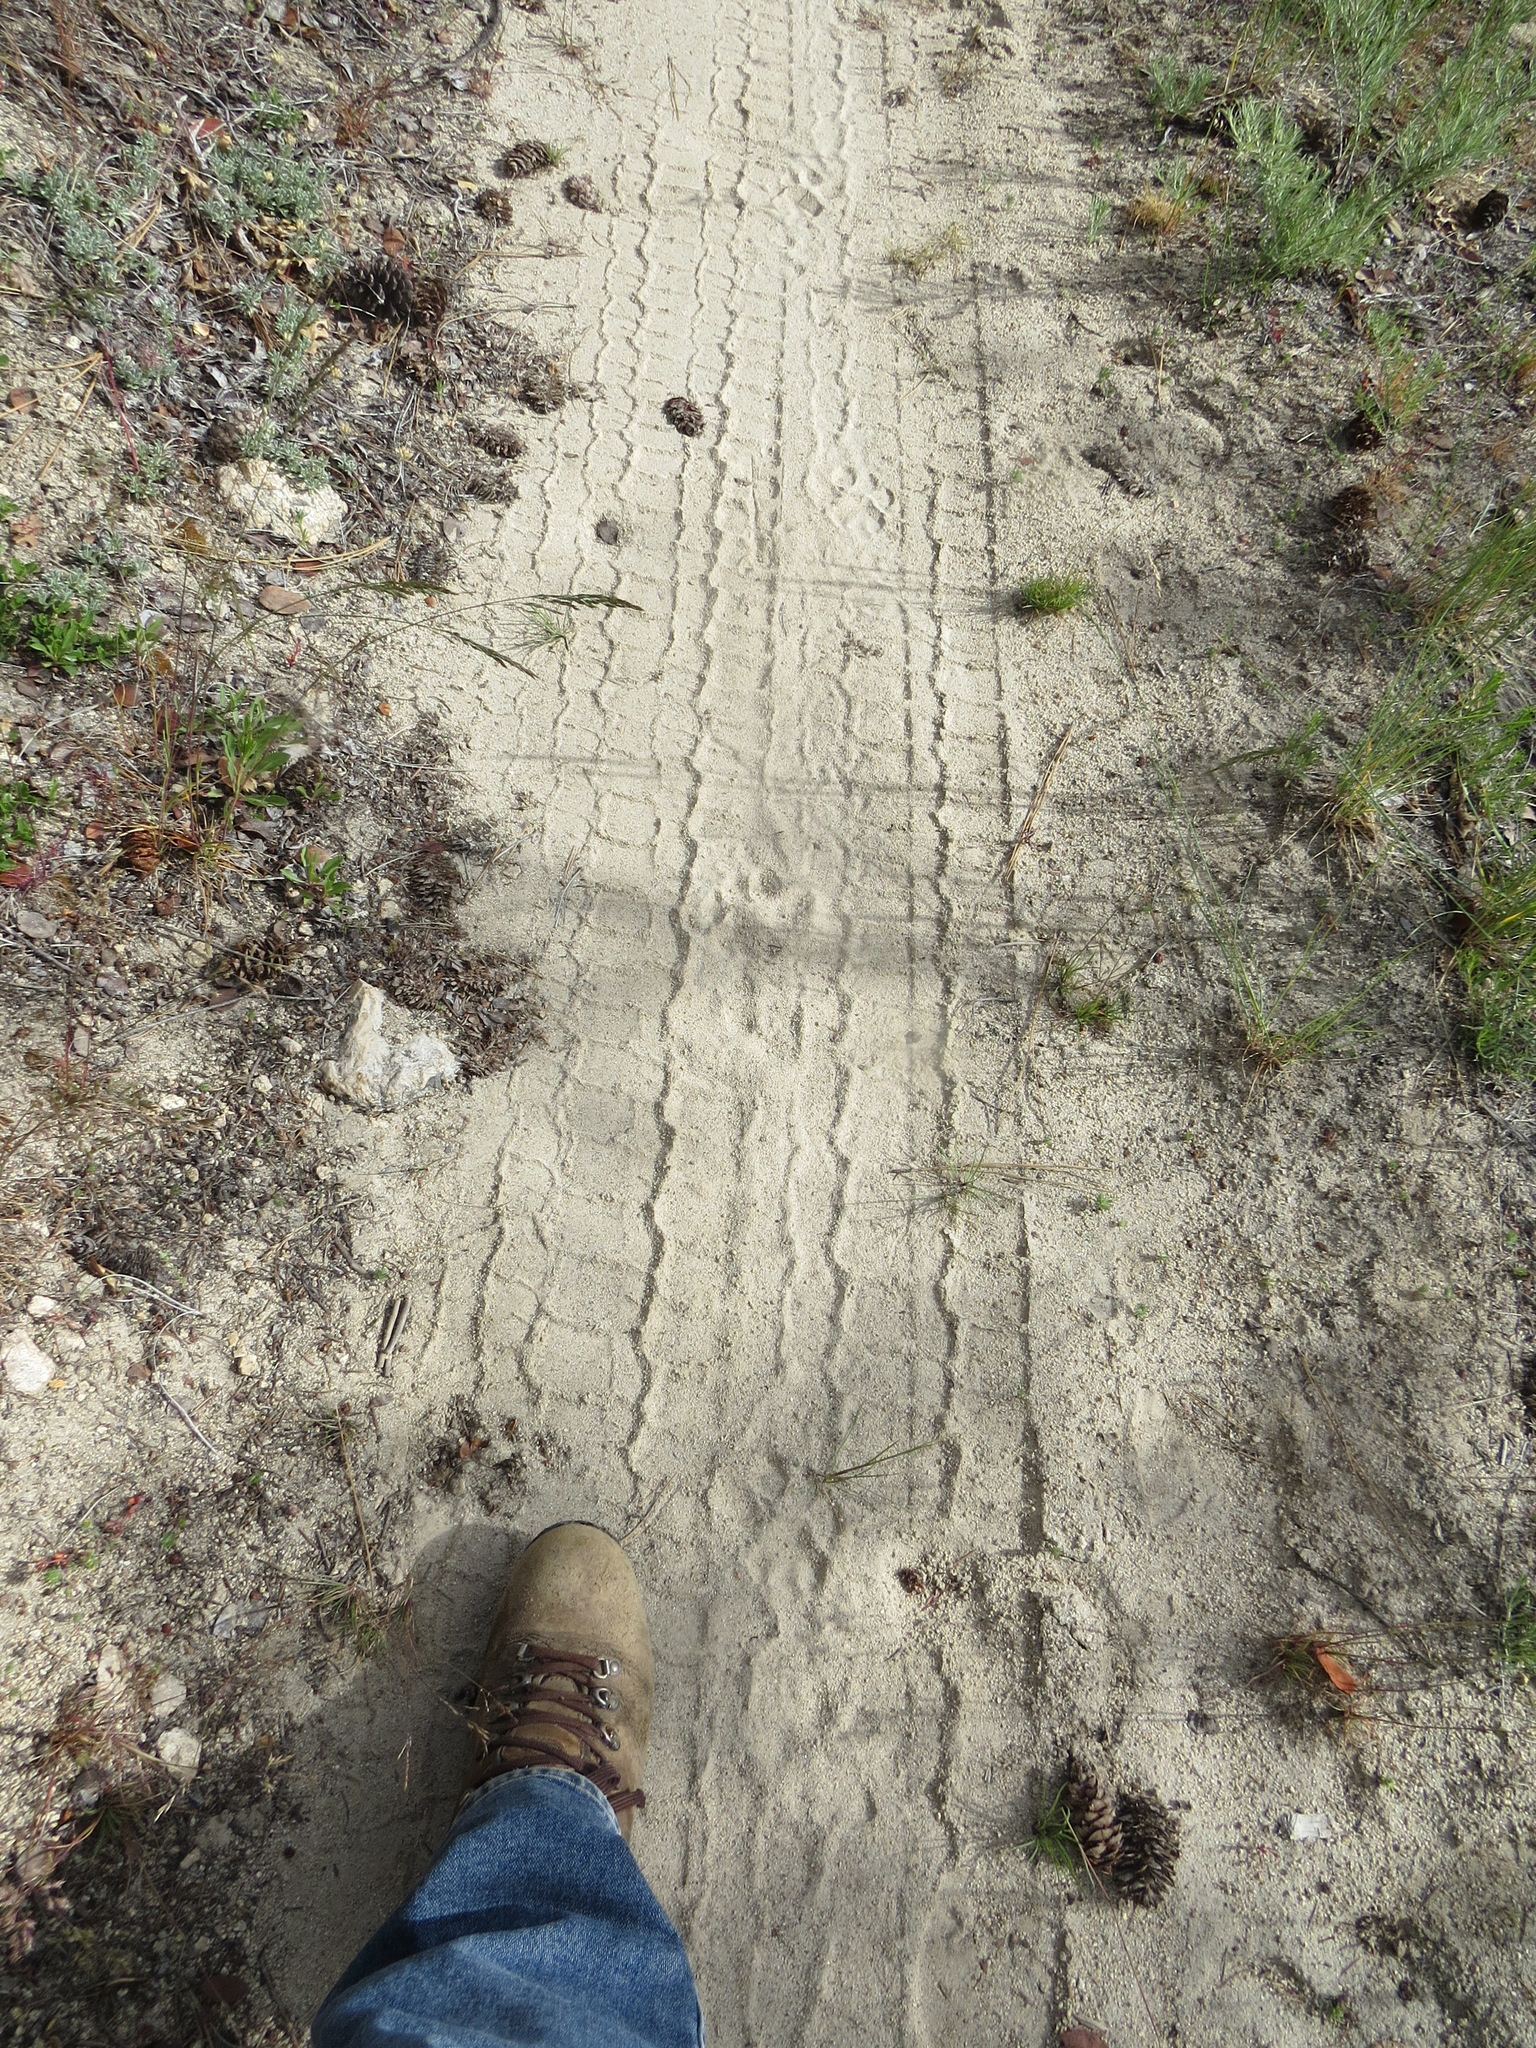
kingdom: Animalia
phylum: Chordata
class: Mammalia
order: Carnivora
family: Felidae
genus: Puma
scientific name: Puma concolor
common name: Puma
